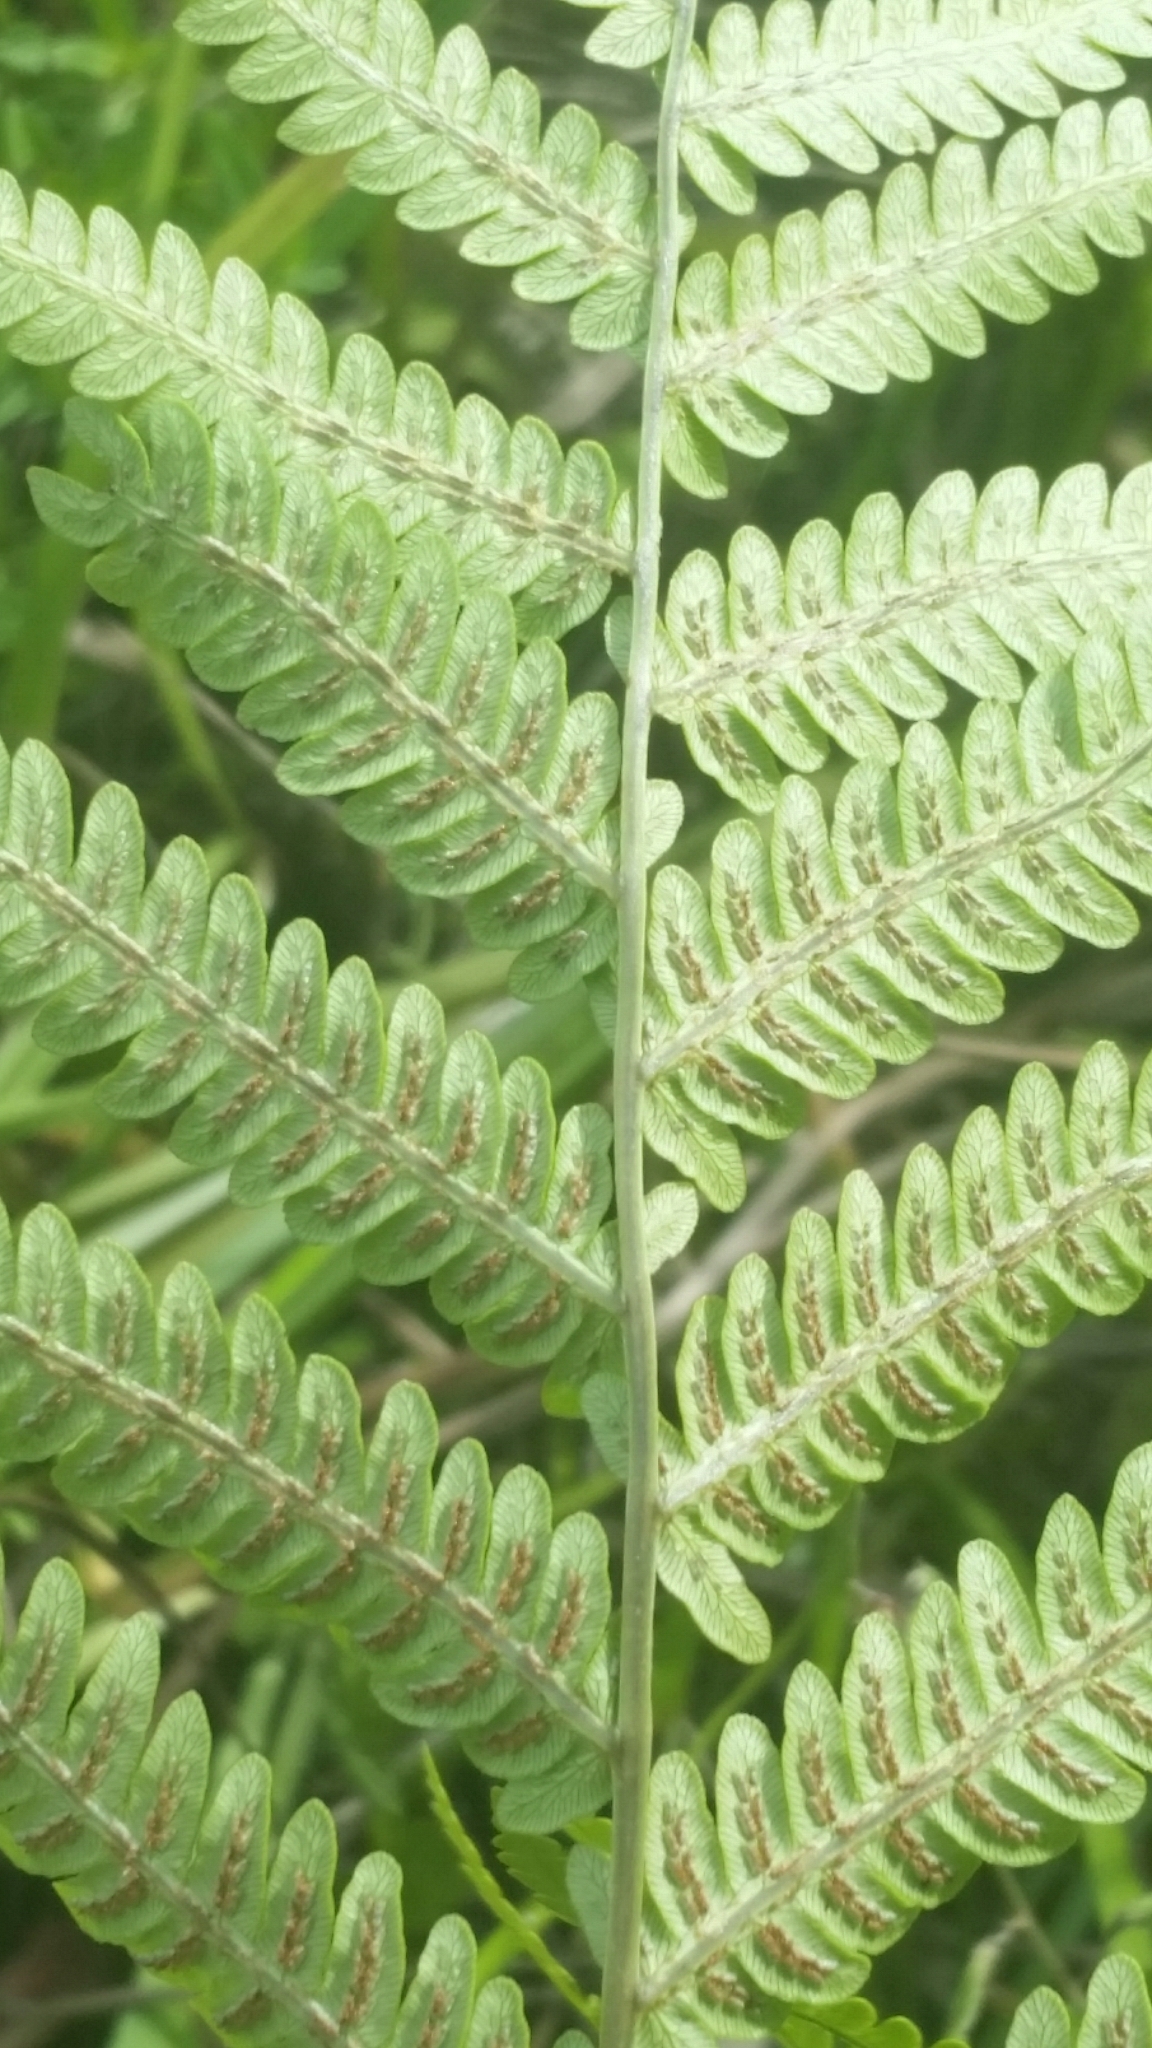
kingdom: Plantae
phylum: Tracheophyta
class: Polypodiopsida
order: Polypodiales
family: Blechnaceae
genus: Anchistea
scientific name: Anchistea virginica
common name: Virginia chain fern
